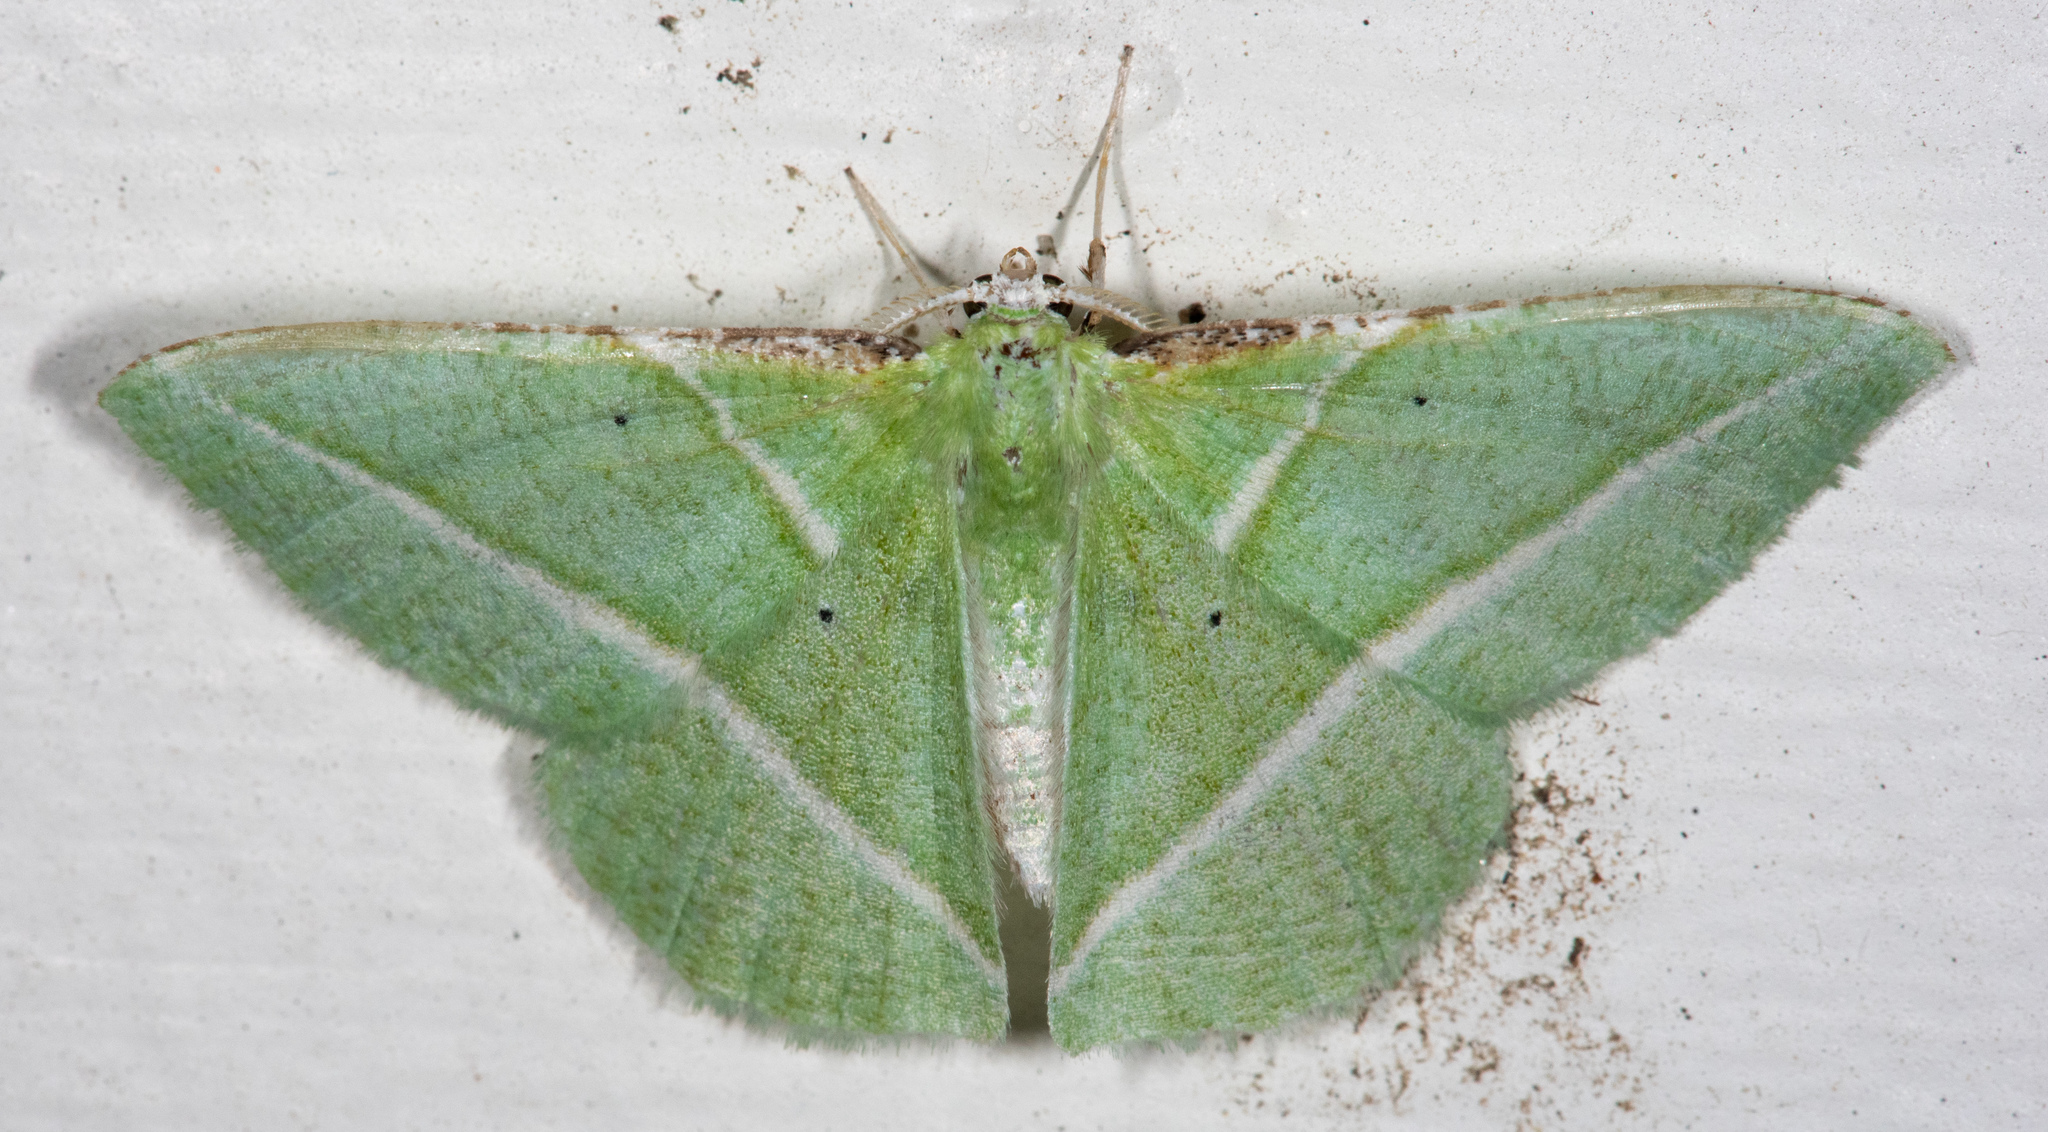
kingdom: Animalia
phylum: Arthropoda
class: Insecta
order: Lepidoptera
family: Geometridae
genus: Dichorda
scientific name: Dichorda illustraria
